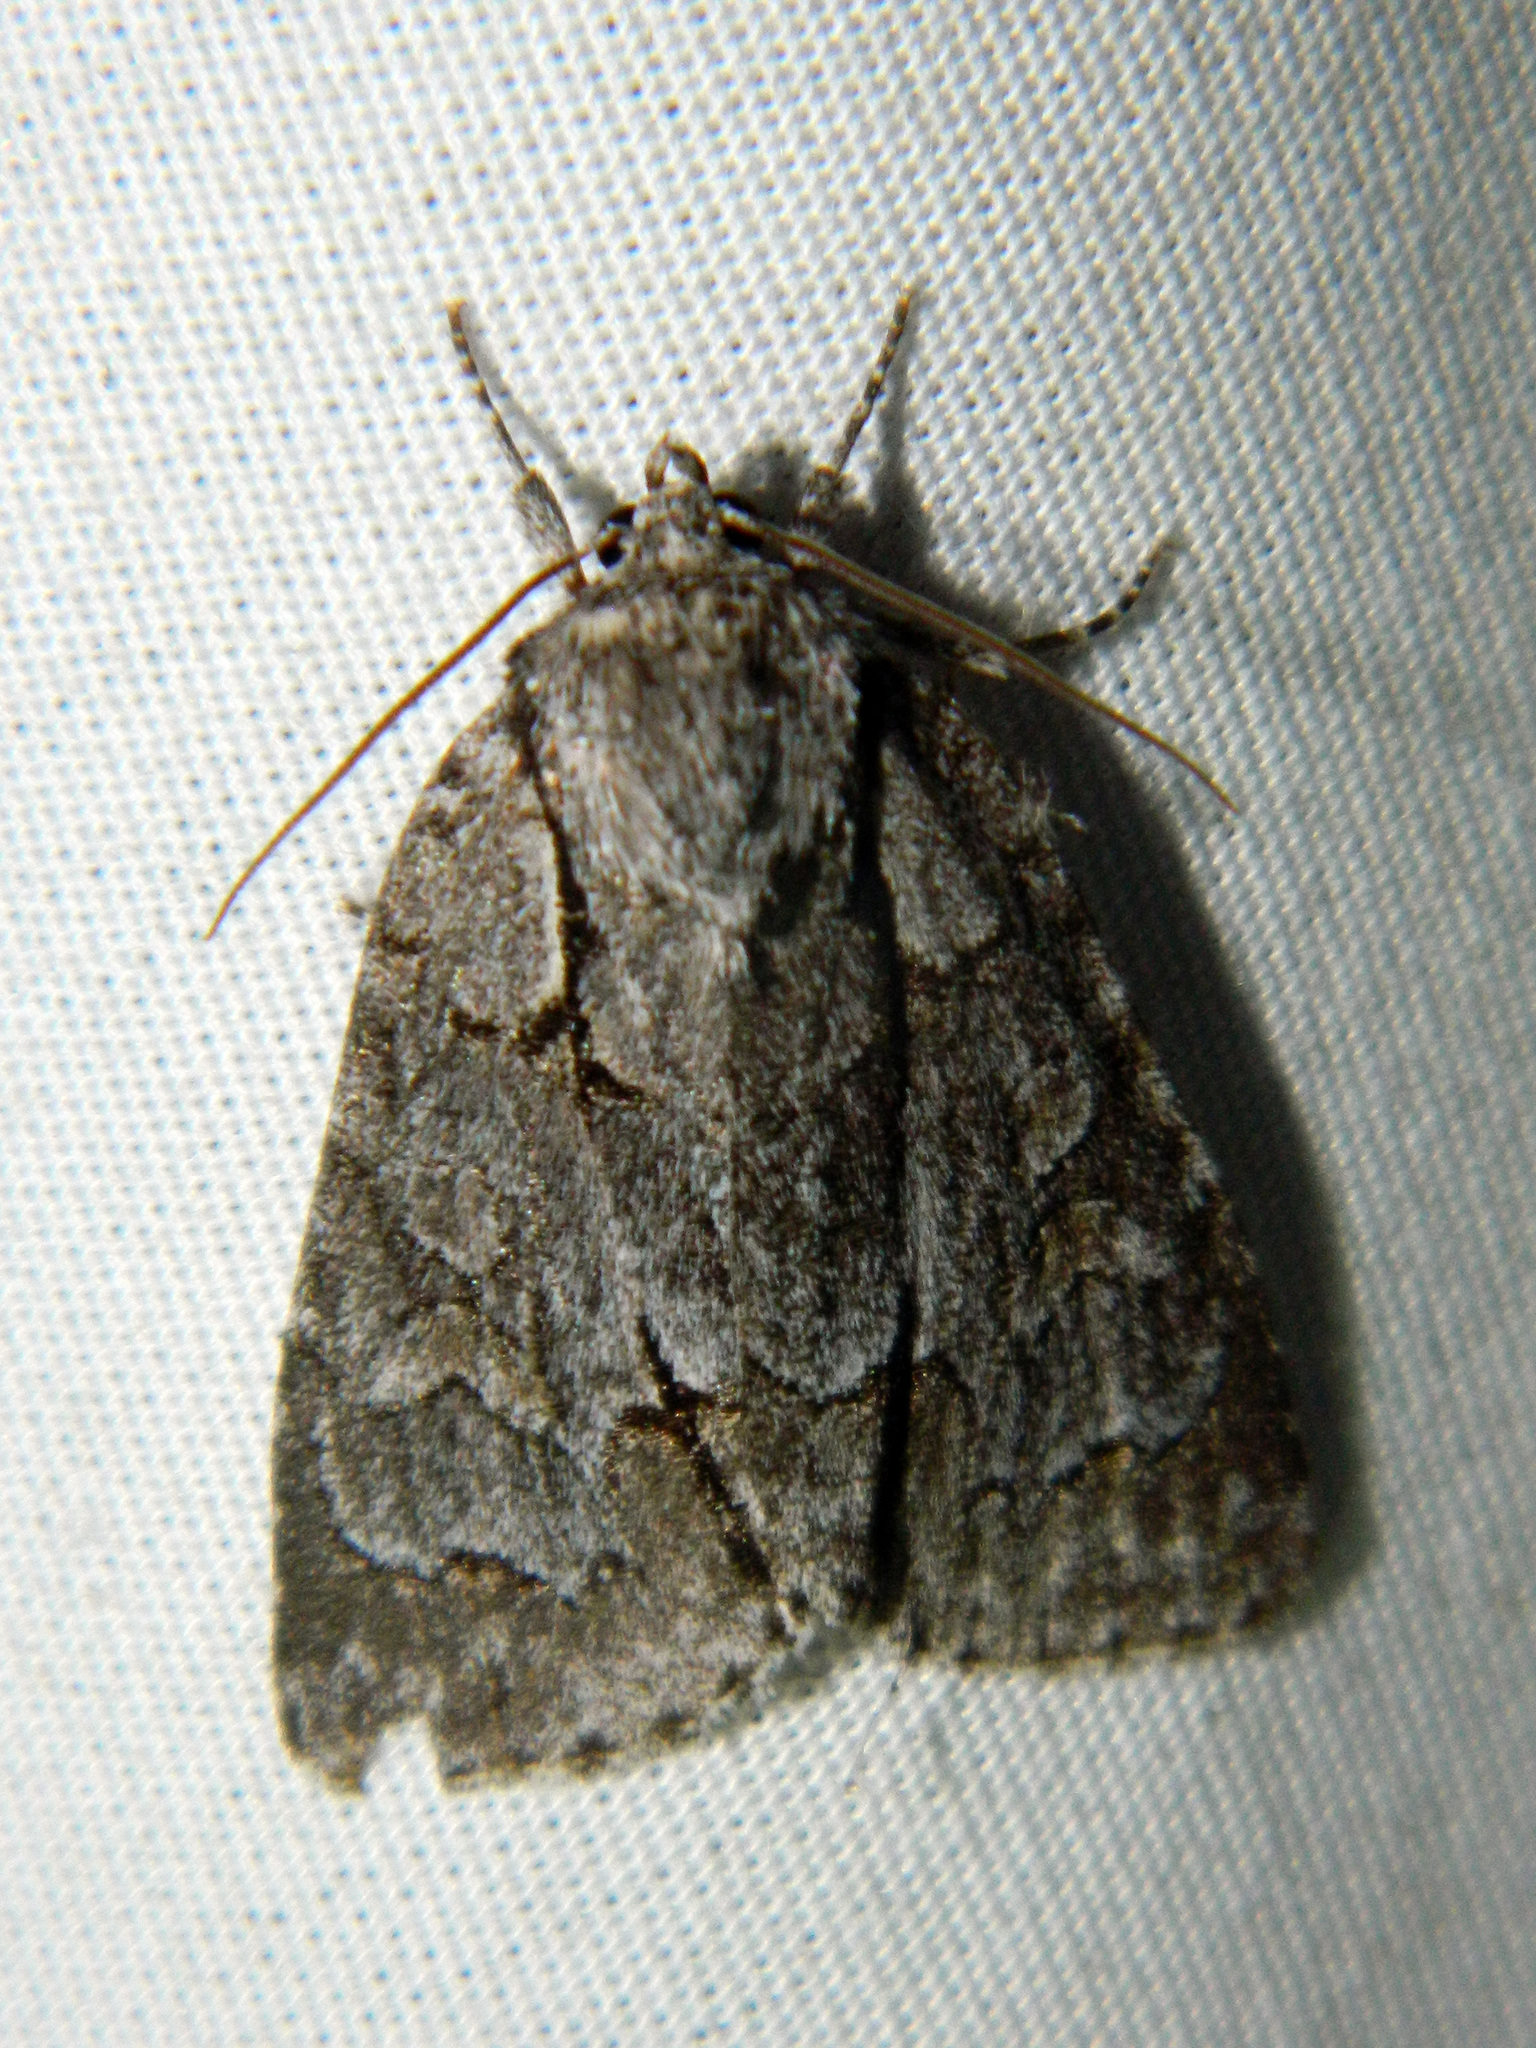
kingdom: Animalia
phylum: Arthropoda
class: Insecta
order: Lepidoptera
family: Noctuidae
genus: Acronicta
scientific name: Acronicta grisea
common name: Gray dagger
